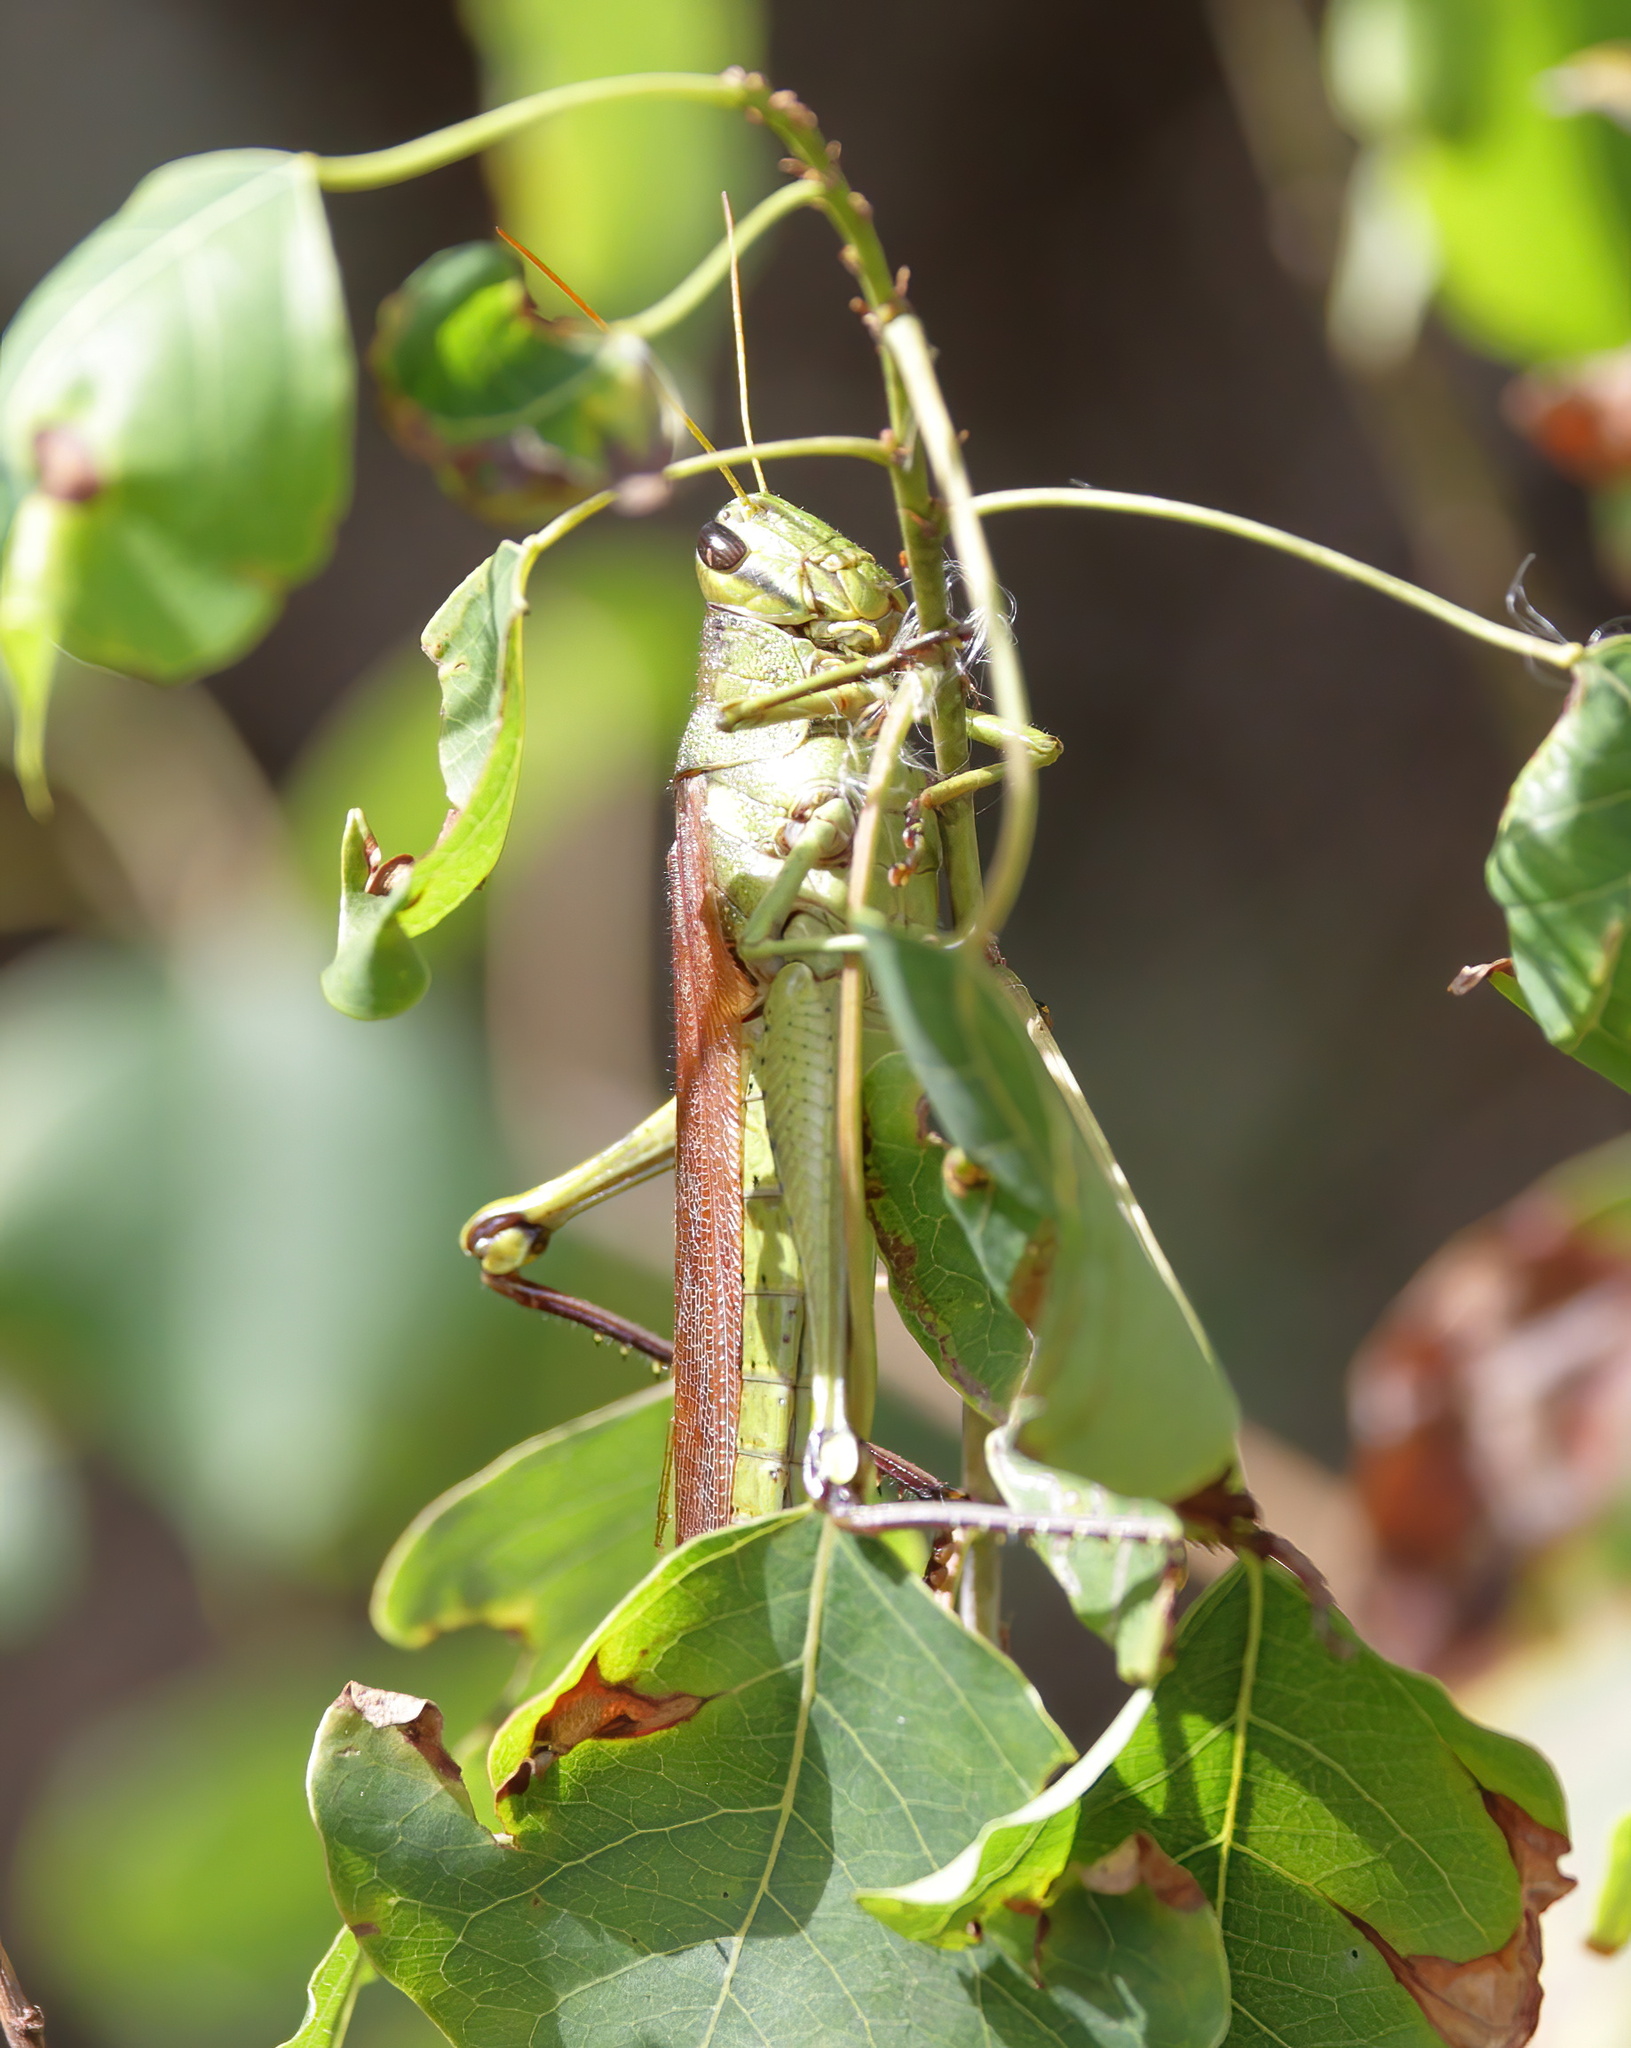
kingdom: Animalia
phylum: Arthropoda
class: Insecta
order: Orthoptera
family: Acrididae
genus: Schistocerca
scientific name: Schistocerca obscura
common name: Obscure bird grasshopper
